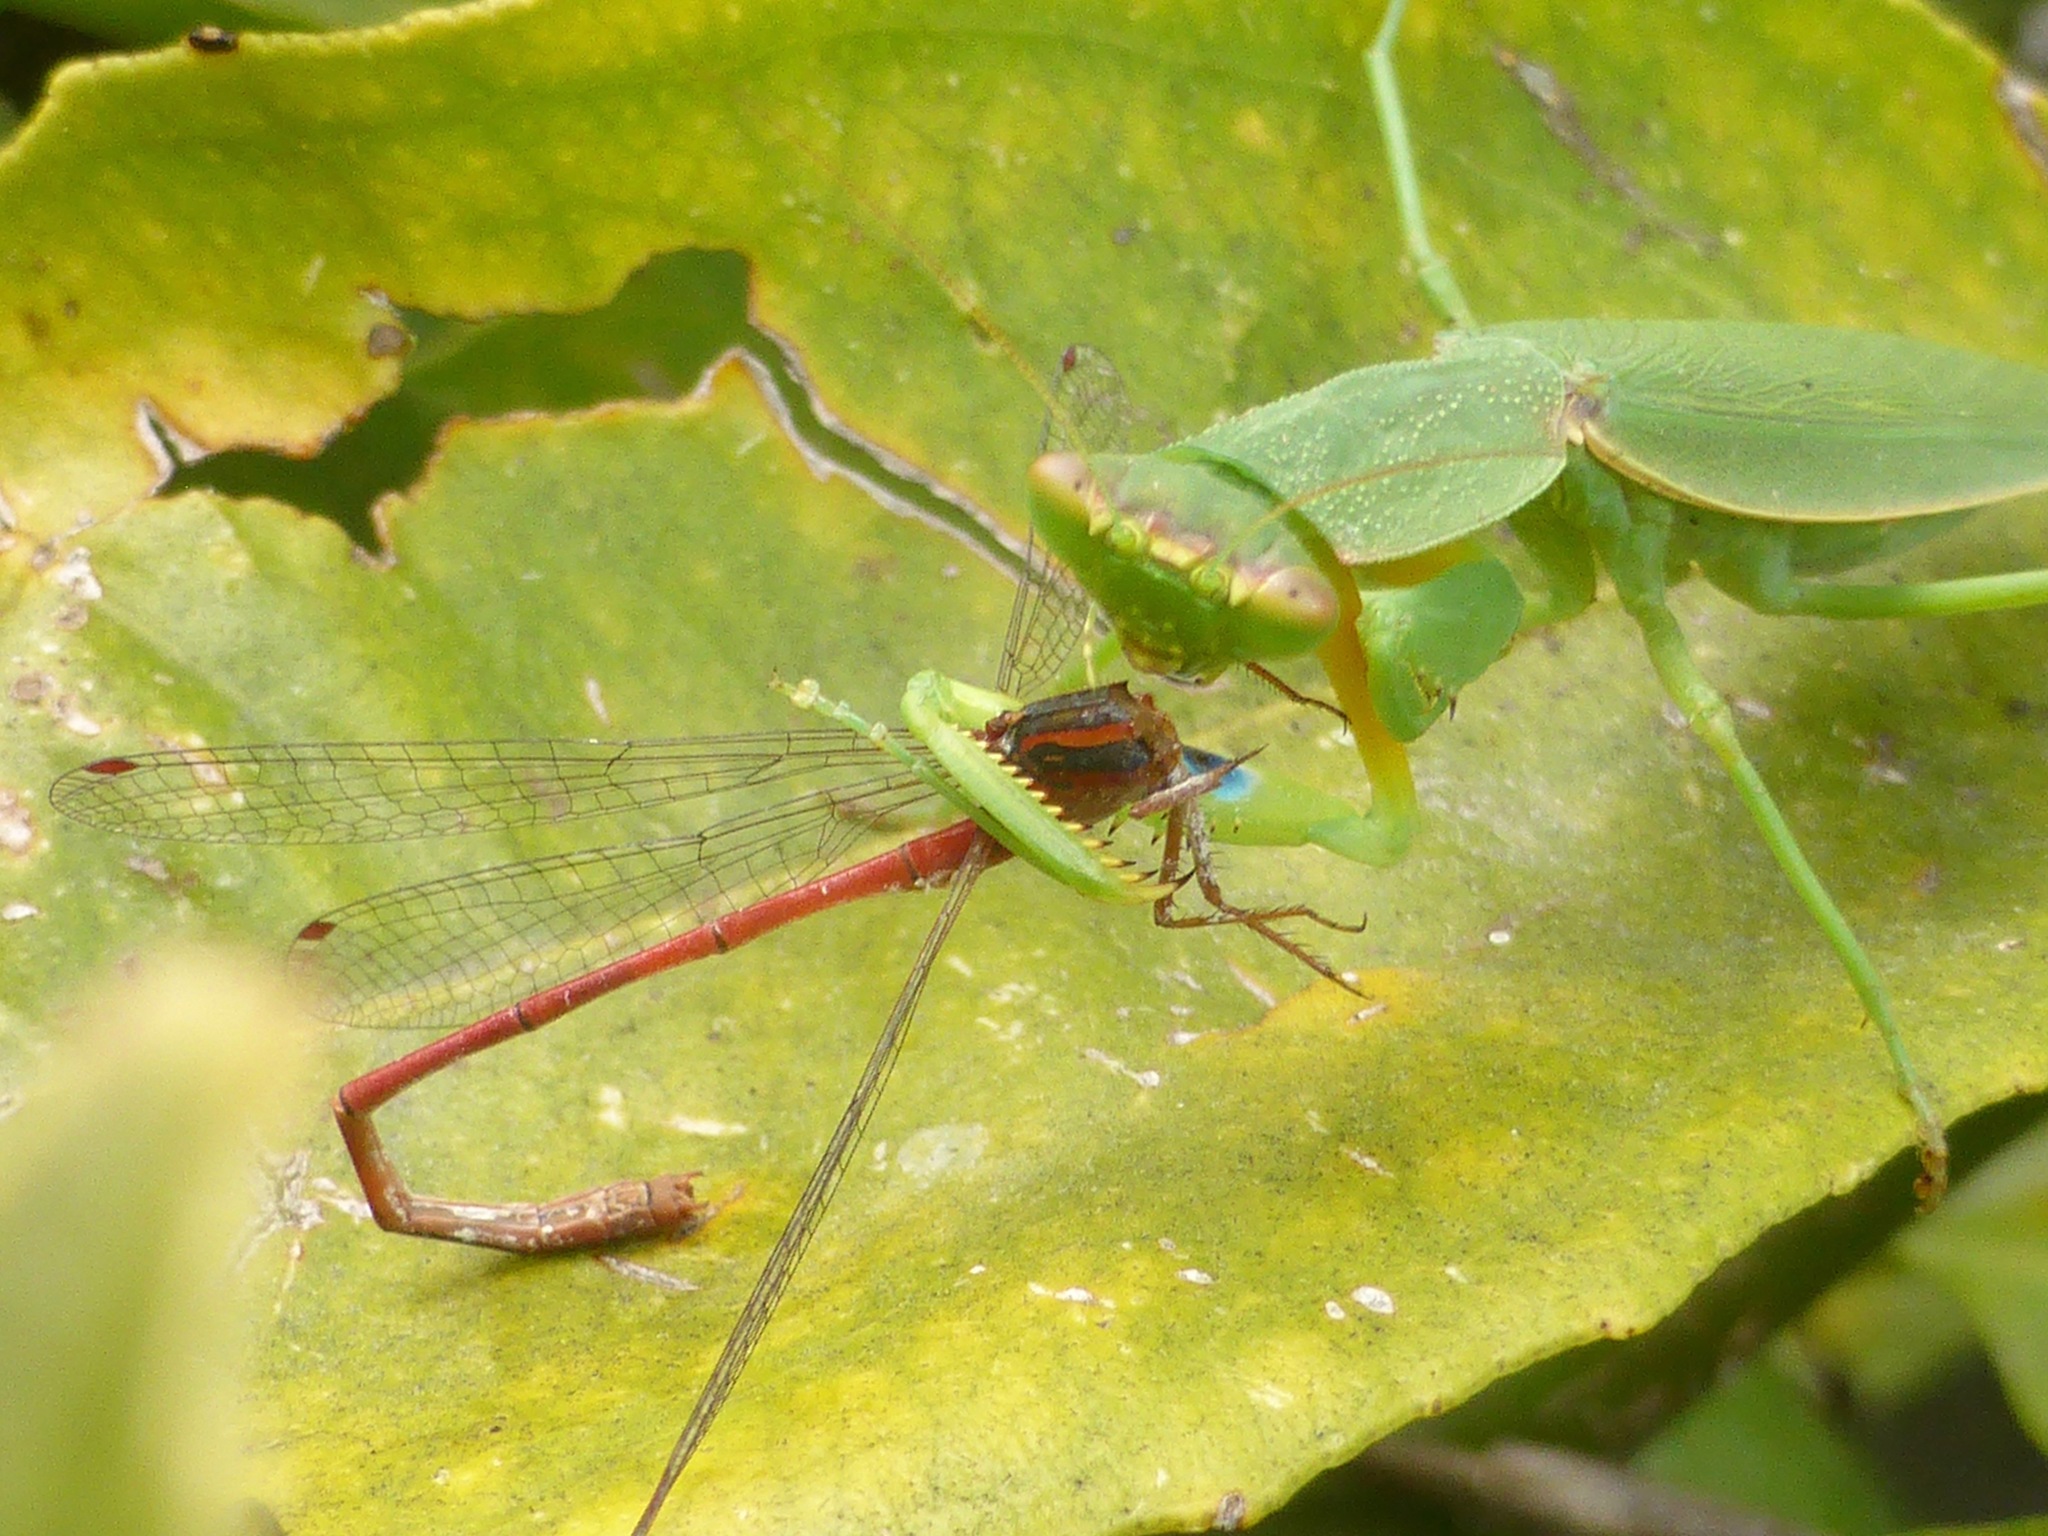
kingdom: Animalia
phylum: Arthropoda
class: Insecta
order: Mantodea
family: Mantidae
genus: Orthodera
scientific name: Orthodera novaezealandiae
